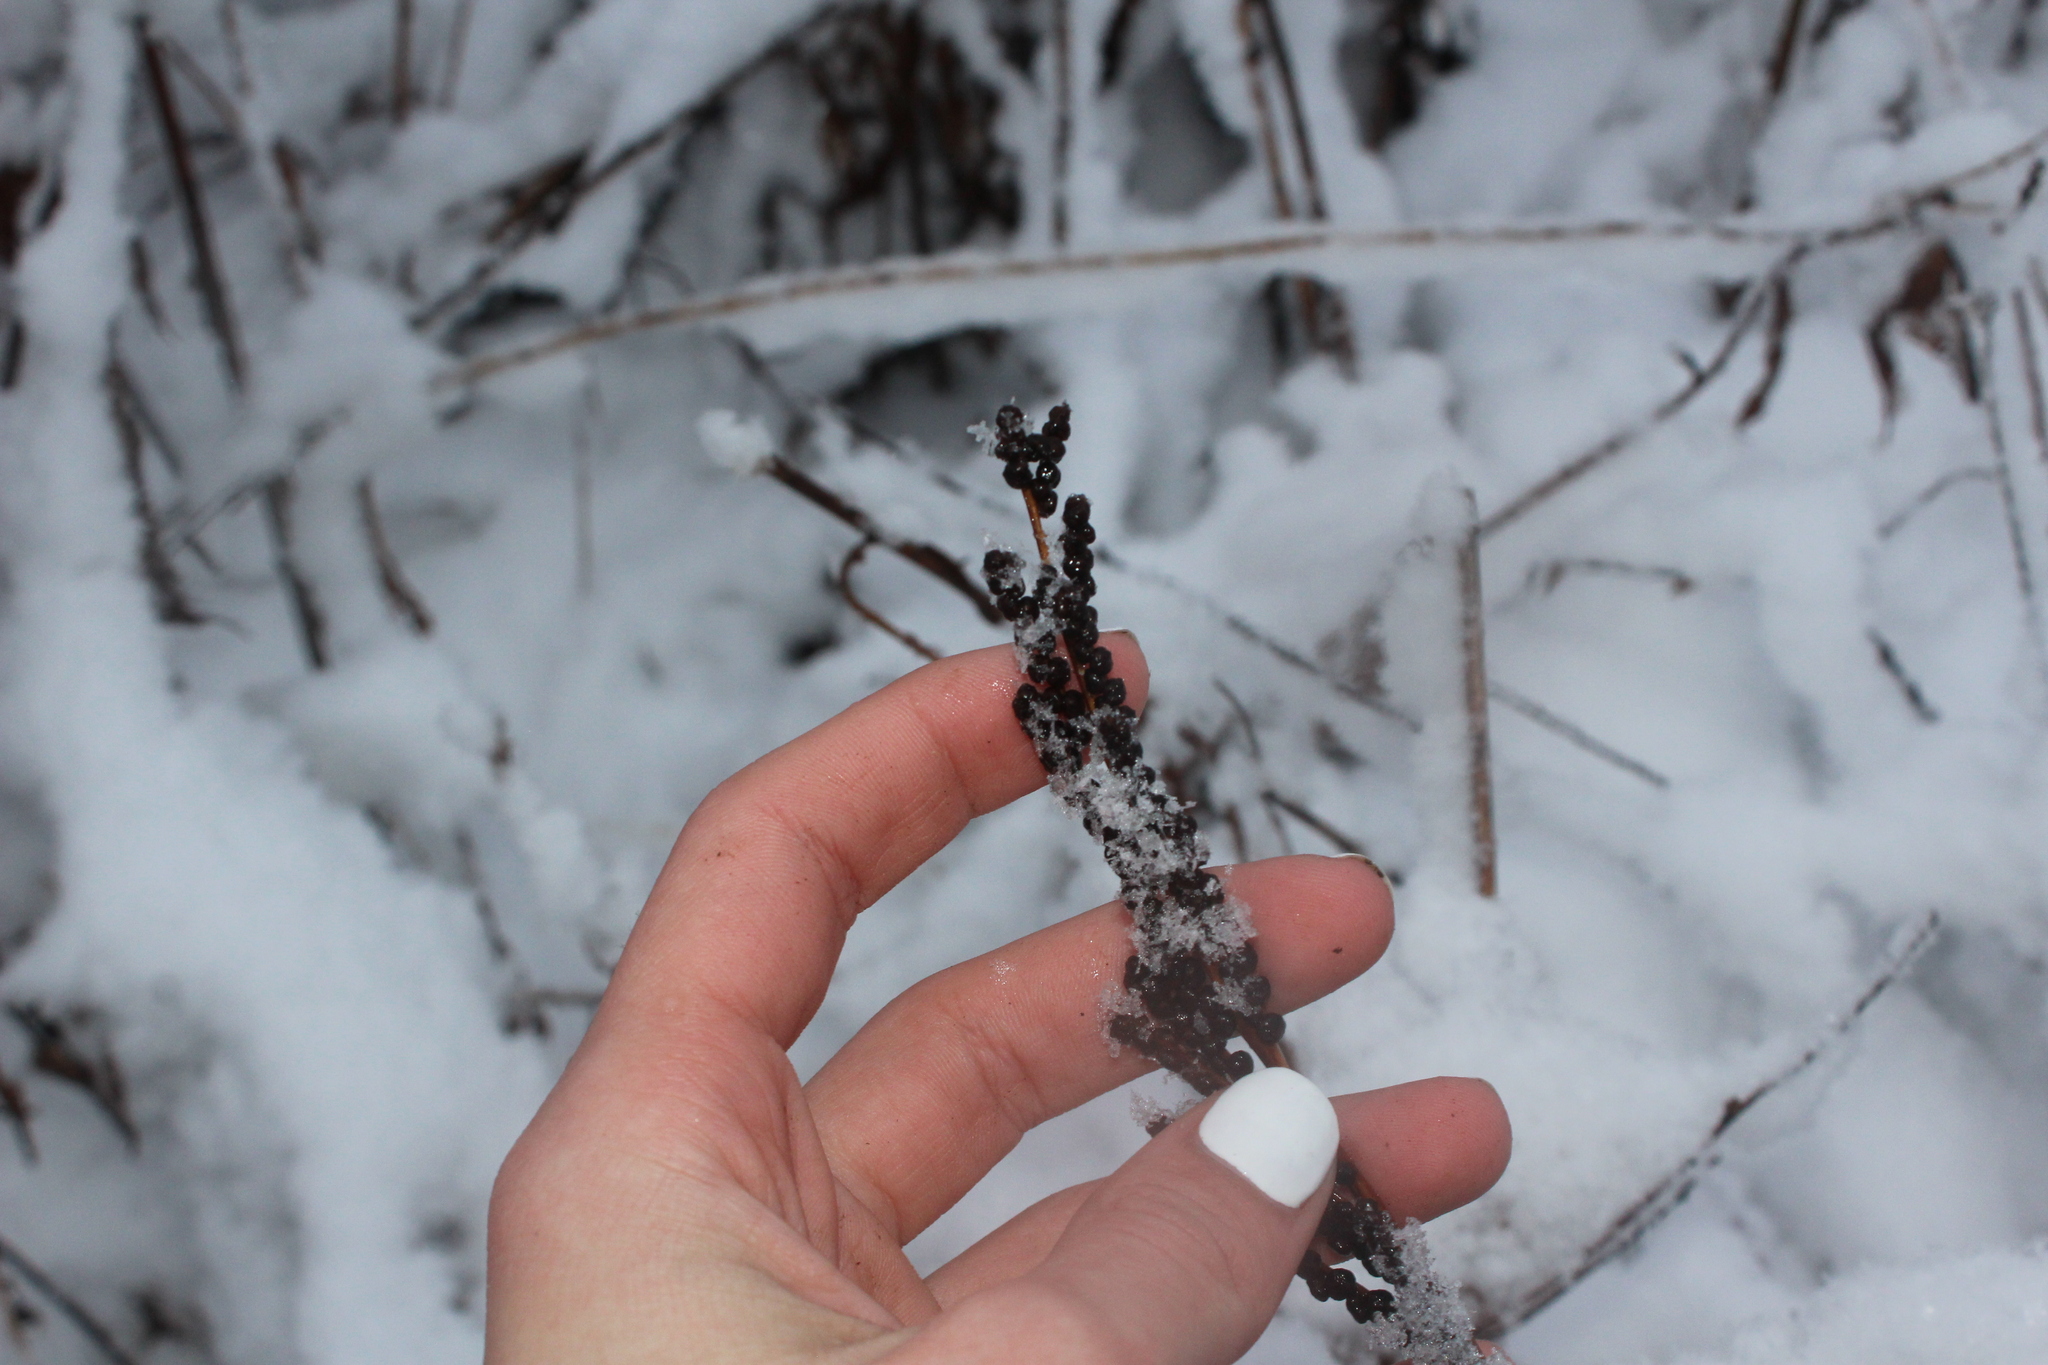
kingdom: Plantae
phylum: Tracheophyta
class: Polypodiopsida
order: Polypodiales
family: Onocleaceae
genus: Onoclea
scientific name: Onoclea sensibilis
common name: Sensitive fern
